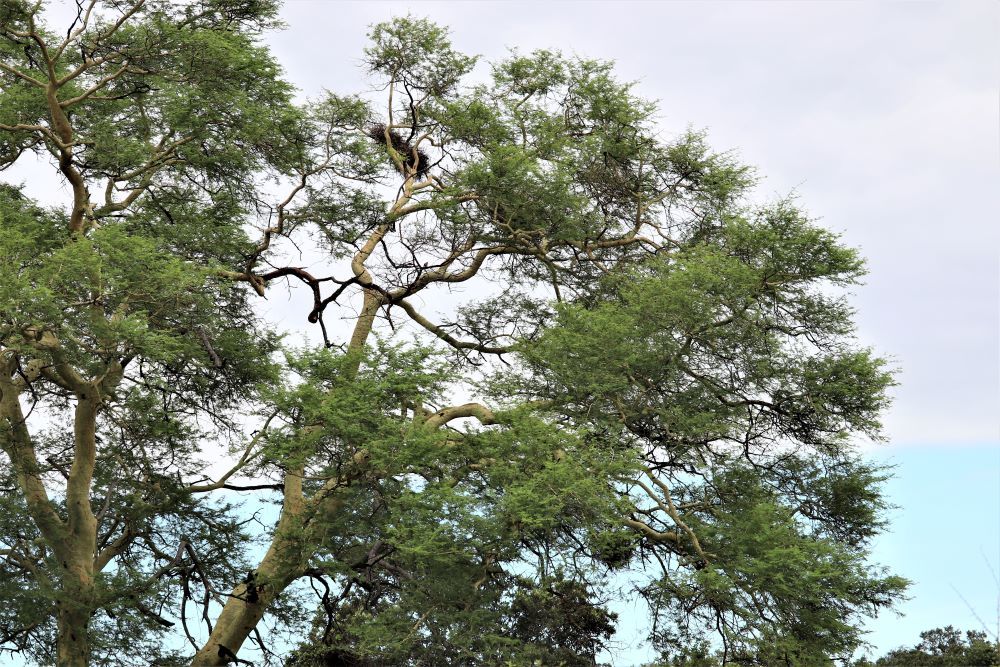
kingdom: Plantae
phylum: Tracheophyta
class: Magnoliopsida
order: Fabales
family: Fabaceae
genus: Vachellia
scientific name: Vachellia xanthophloea
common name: Fever tree
